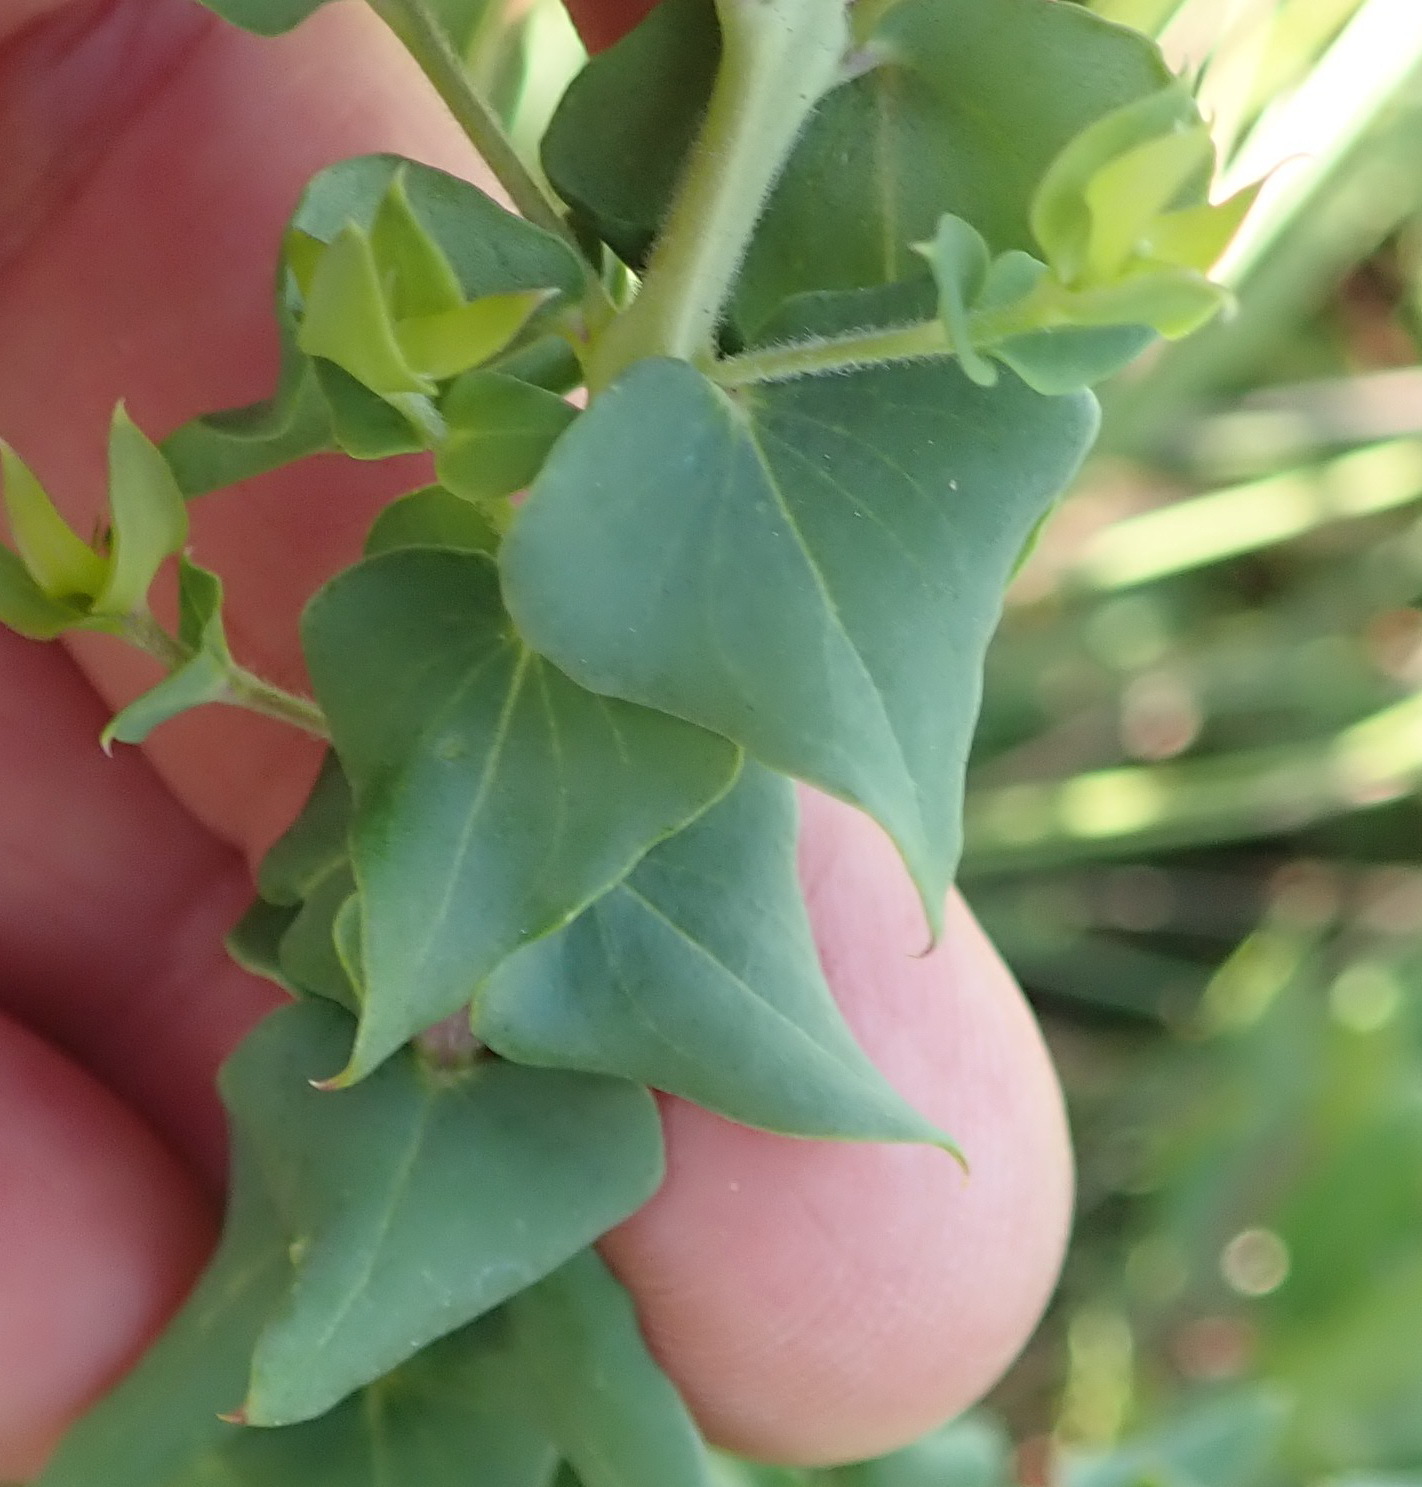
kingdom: Plantae
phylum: Tracheophyta
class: Magnoliopsida
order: Fabales
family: Polygalaceae
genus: Polygala
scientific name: Polygala fruticosa
